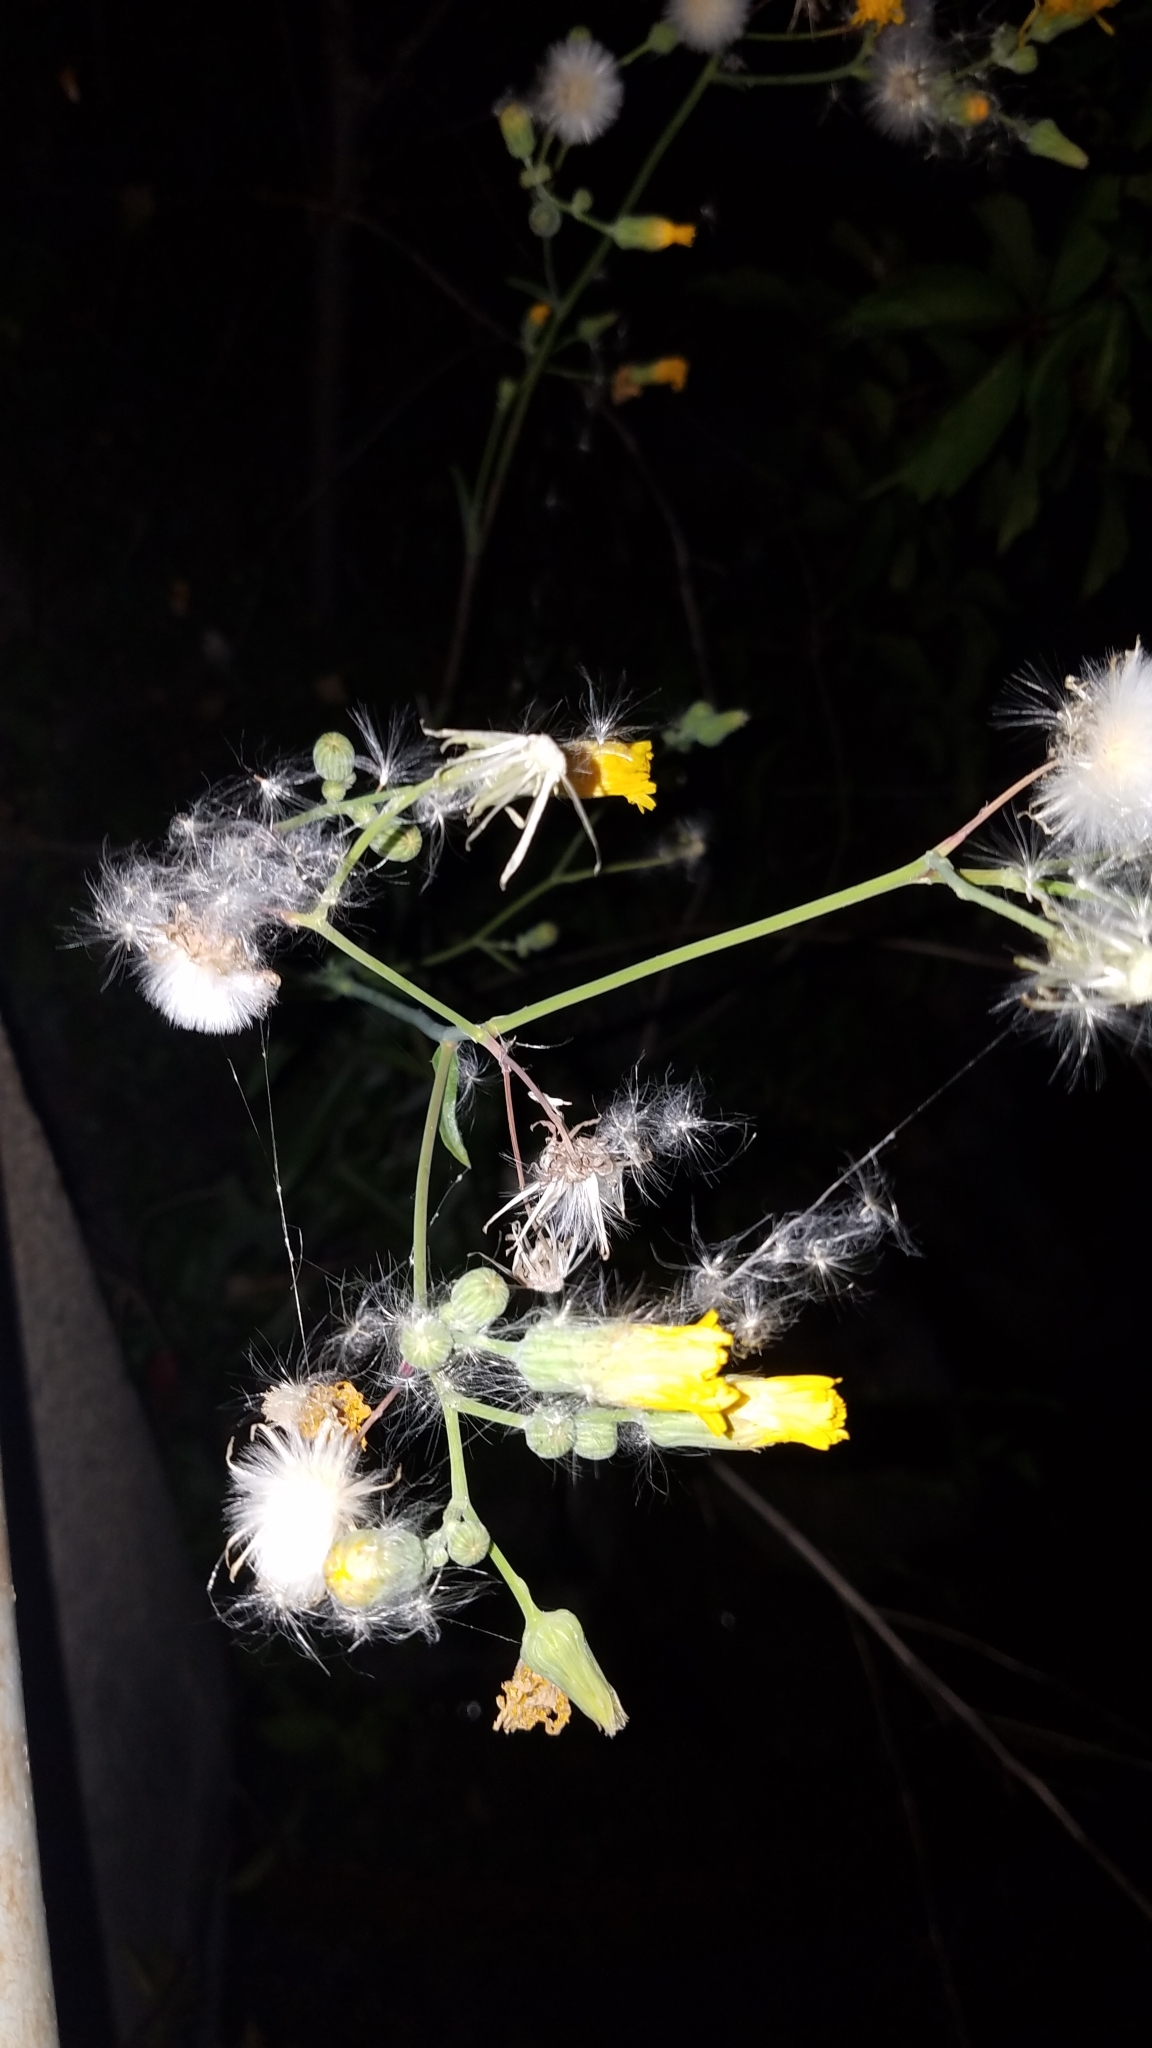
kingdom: Plantae
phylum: Tracheophyta
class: Magnoliopsida
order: Asterales
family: Asteraceae
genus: Sonchus
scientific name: Sonchus arvensis
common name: Perennial sow-thistle
